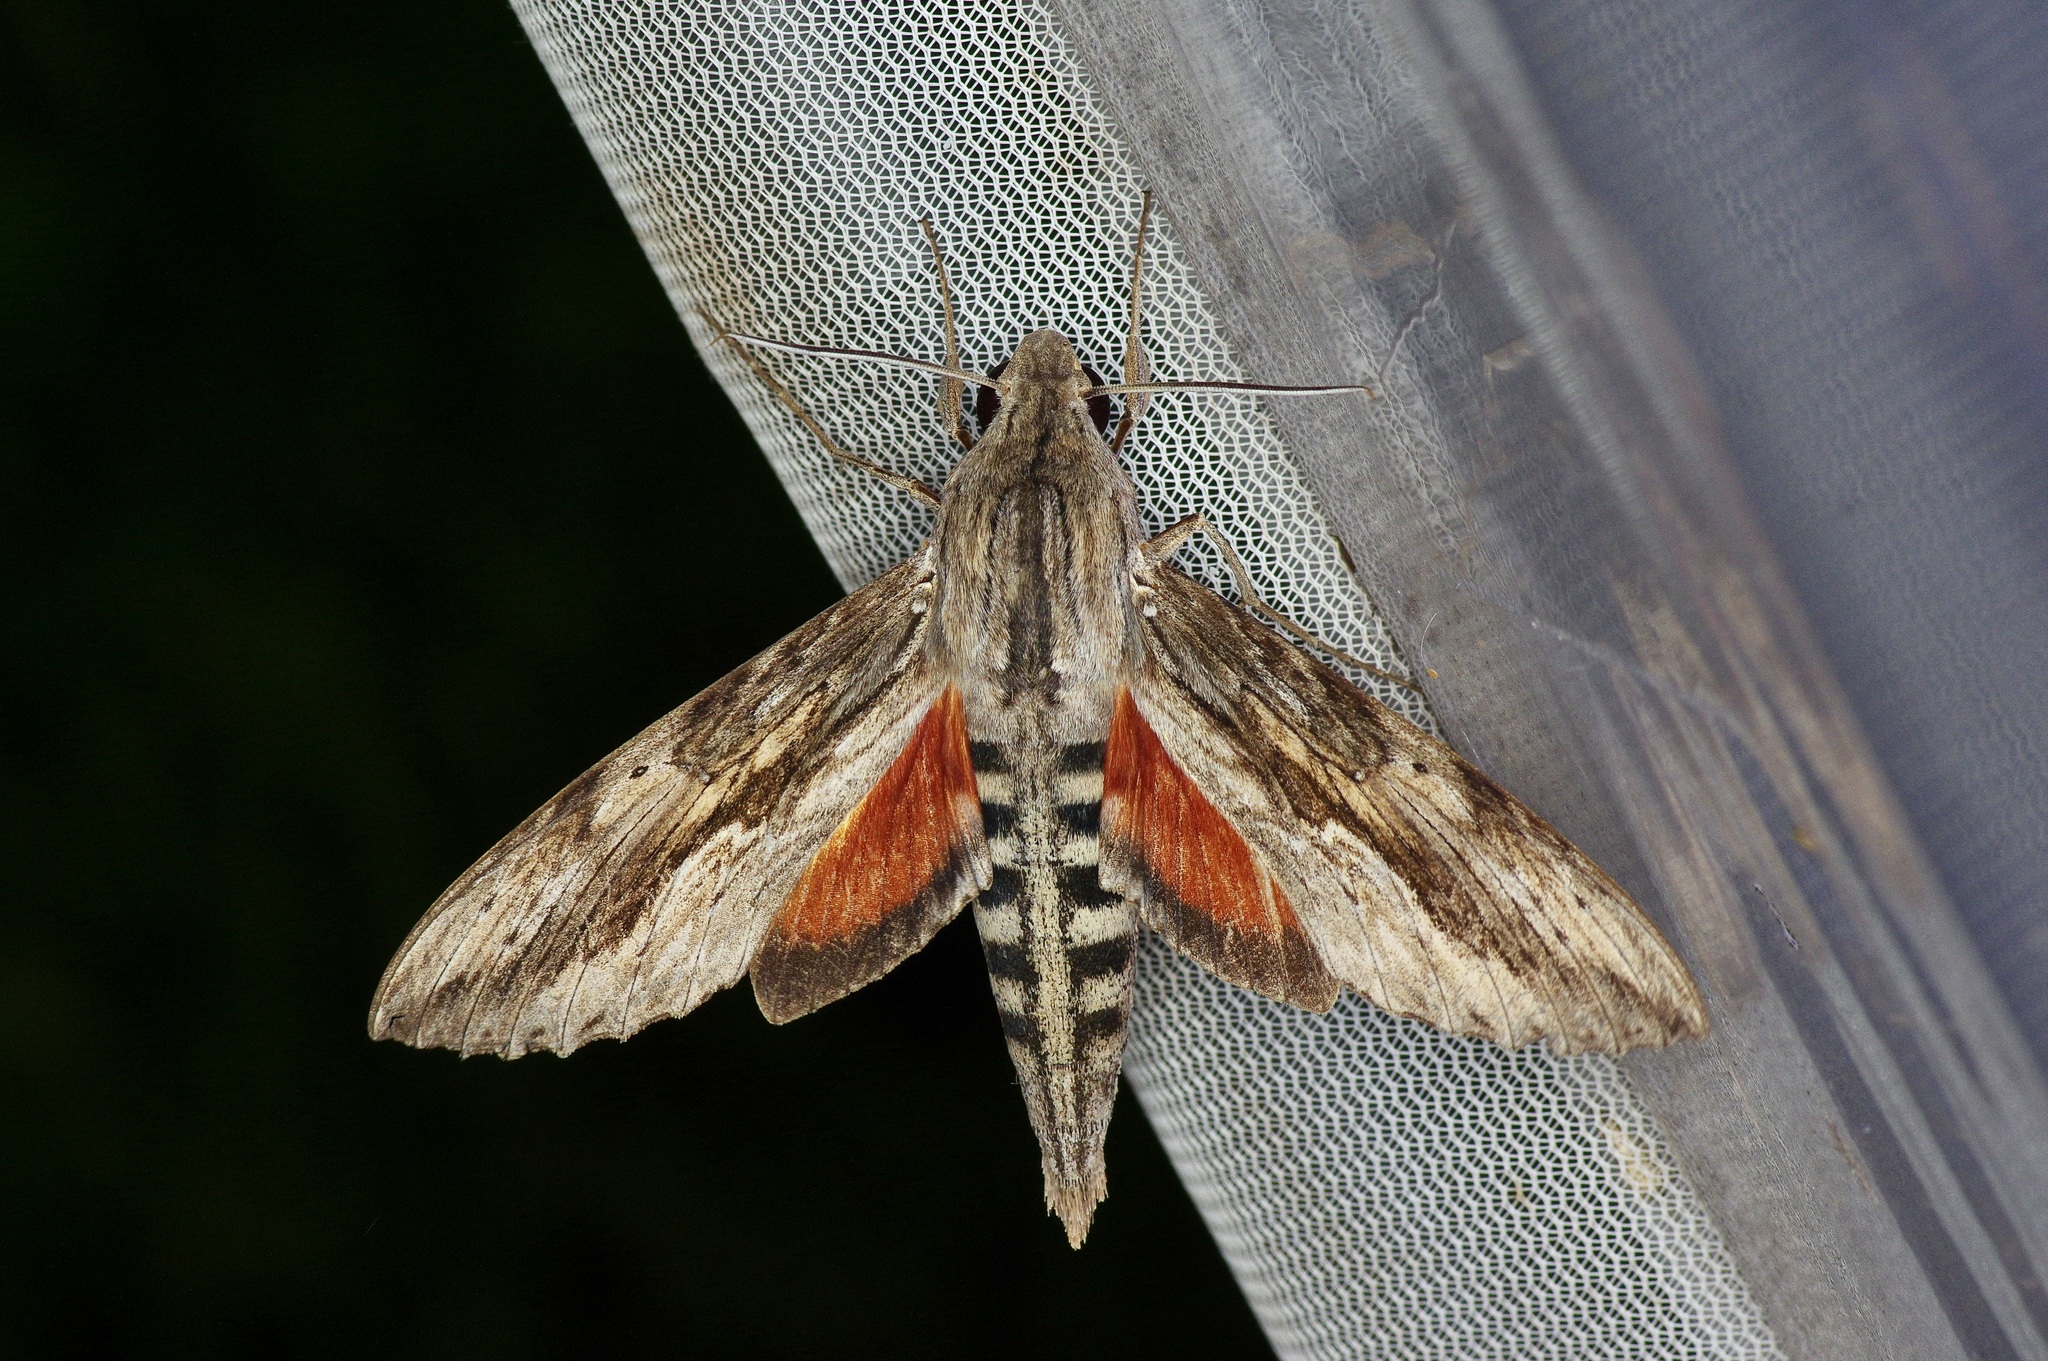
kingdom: Animalia
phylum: Arthropoda
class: Insecta
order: Lepidoptera
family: Sphingidae
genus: Erinnyis
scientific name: Erinnyis ello
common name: Ello sphinx
